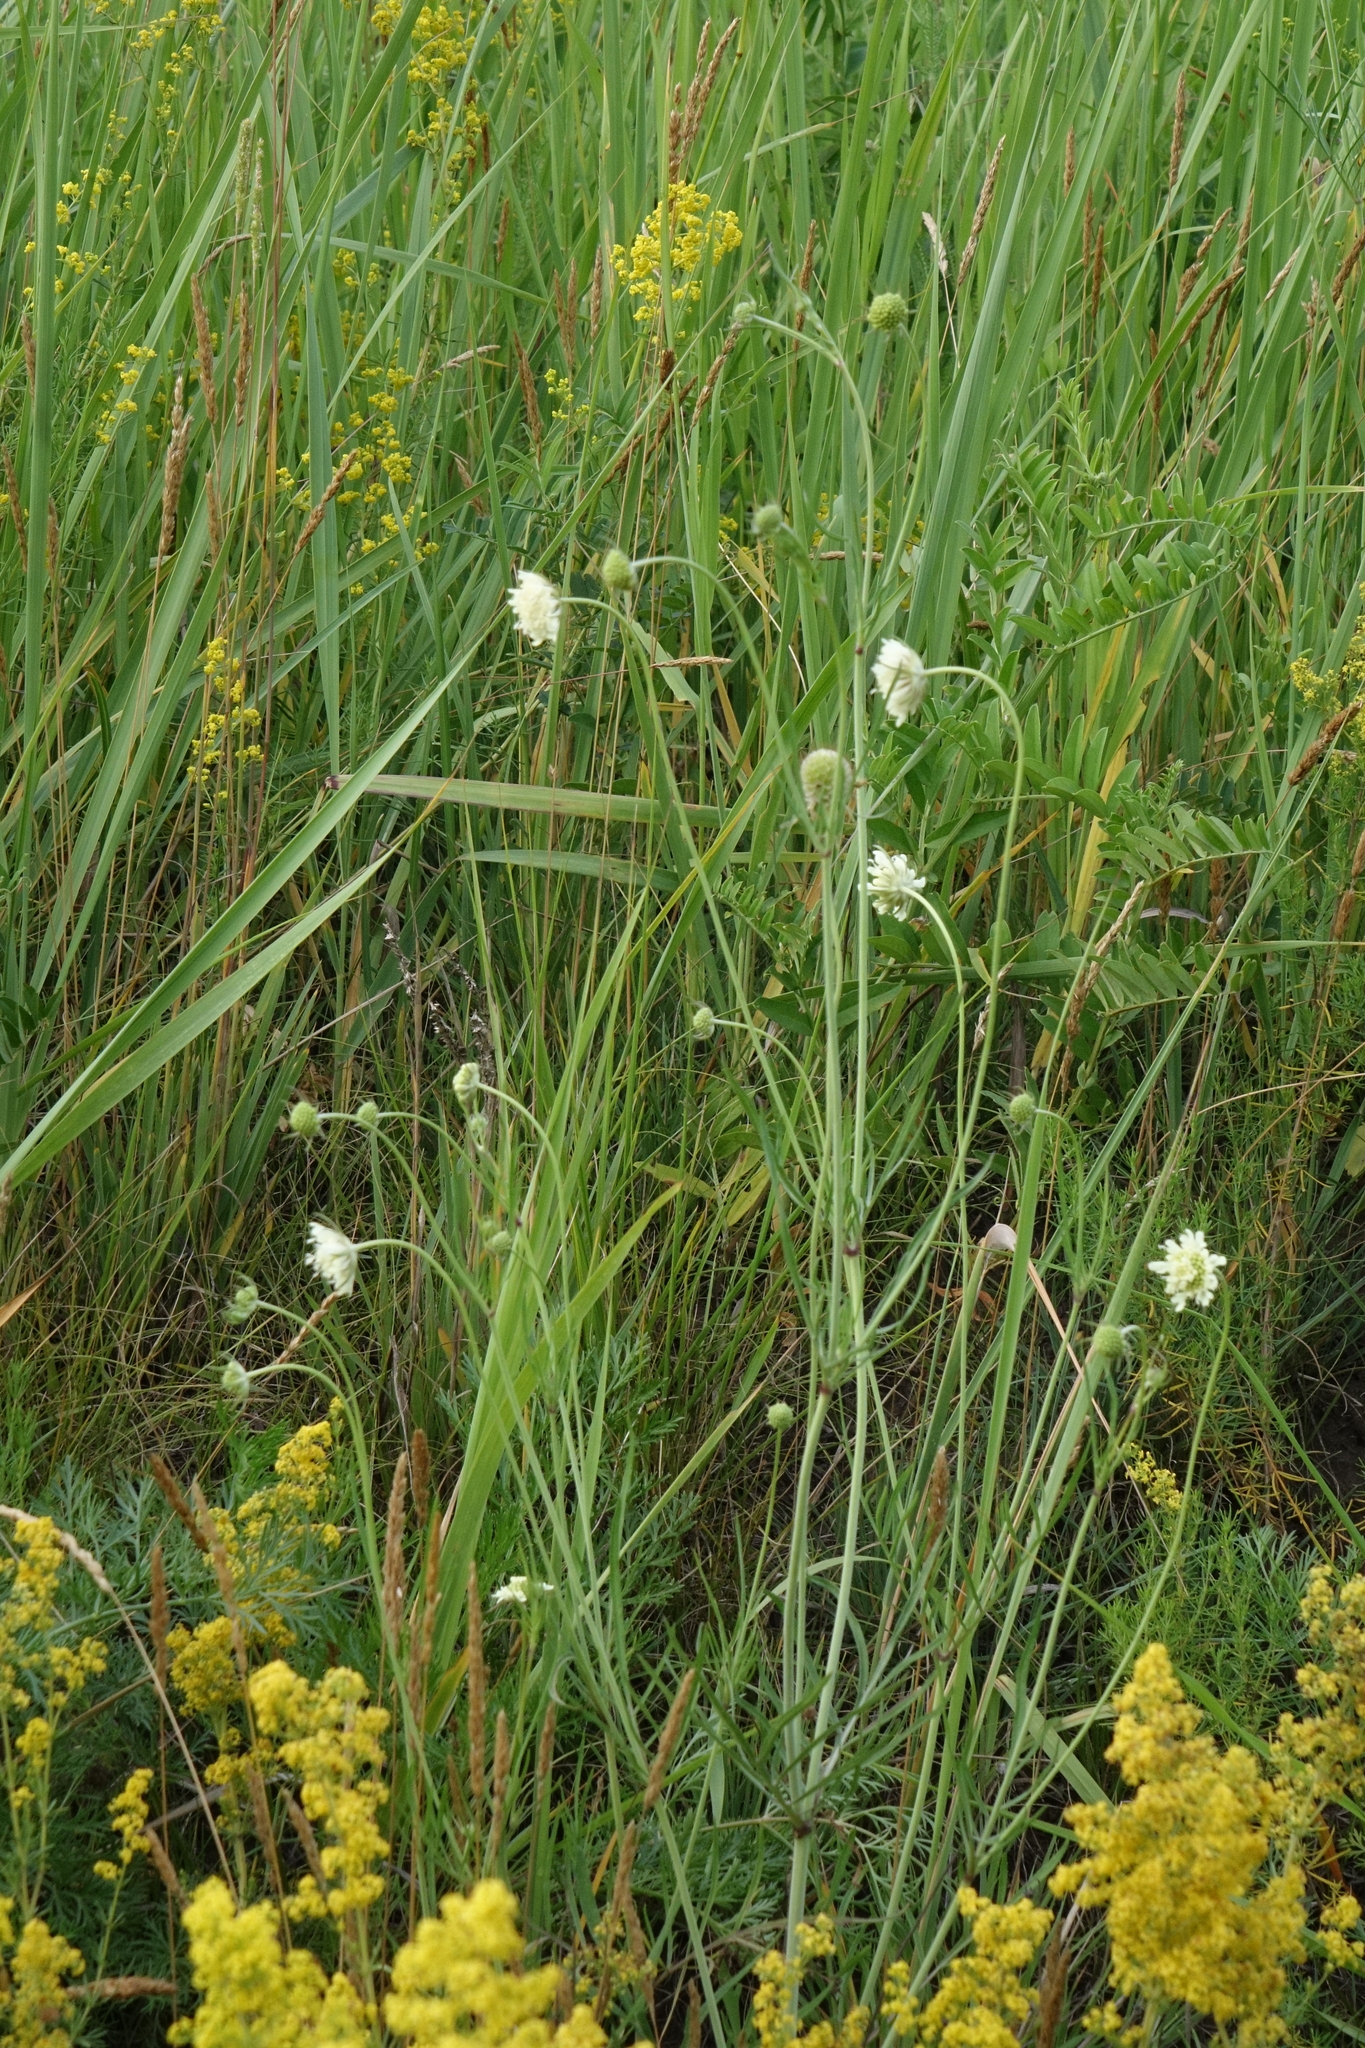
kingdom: Plantae
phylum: Tracheophyta
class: Magnoliopsida
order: Dipsacales
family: Caprifoliaceae
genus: Scabiosa
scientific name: Scabiosa ochroleuca
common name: Cream pincushions
